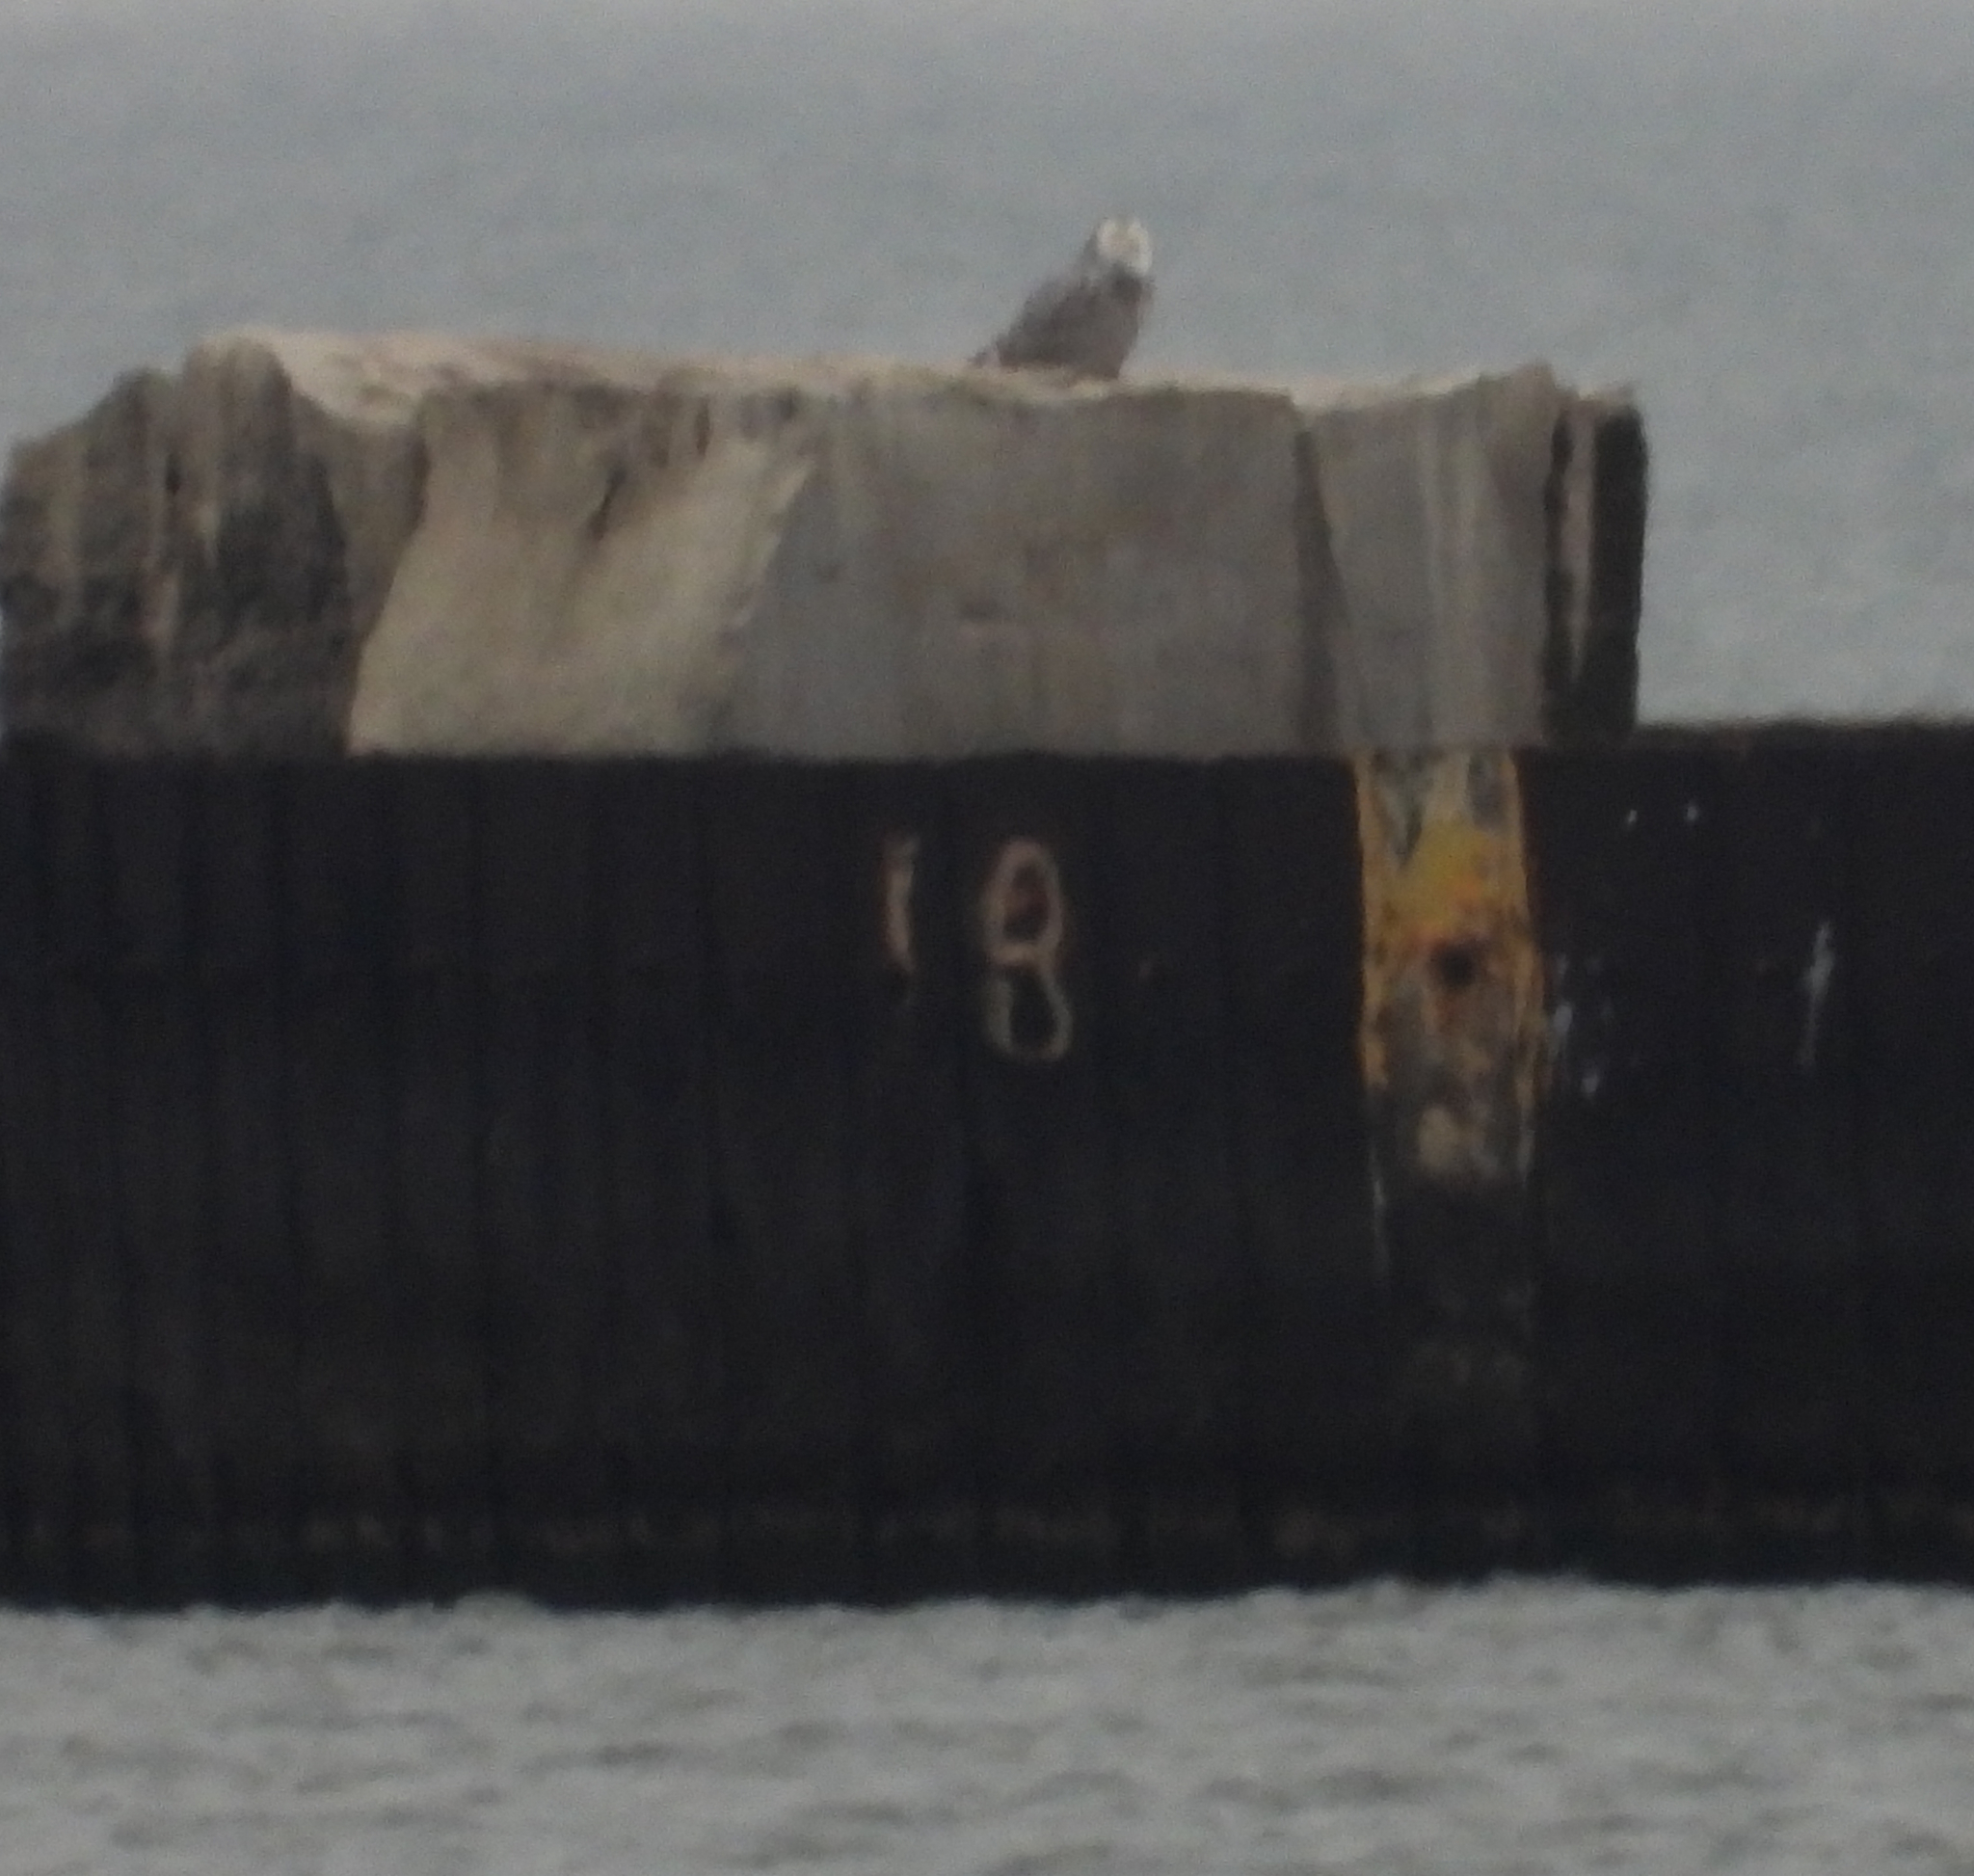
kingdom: Animalia
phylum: Chordata
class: Aves
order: Strigiformes
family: Strigidae
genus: Bubo
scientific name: Bubo scandiacus
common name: Snowy owl
